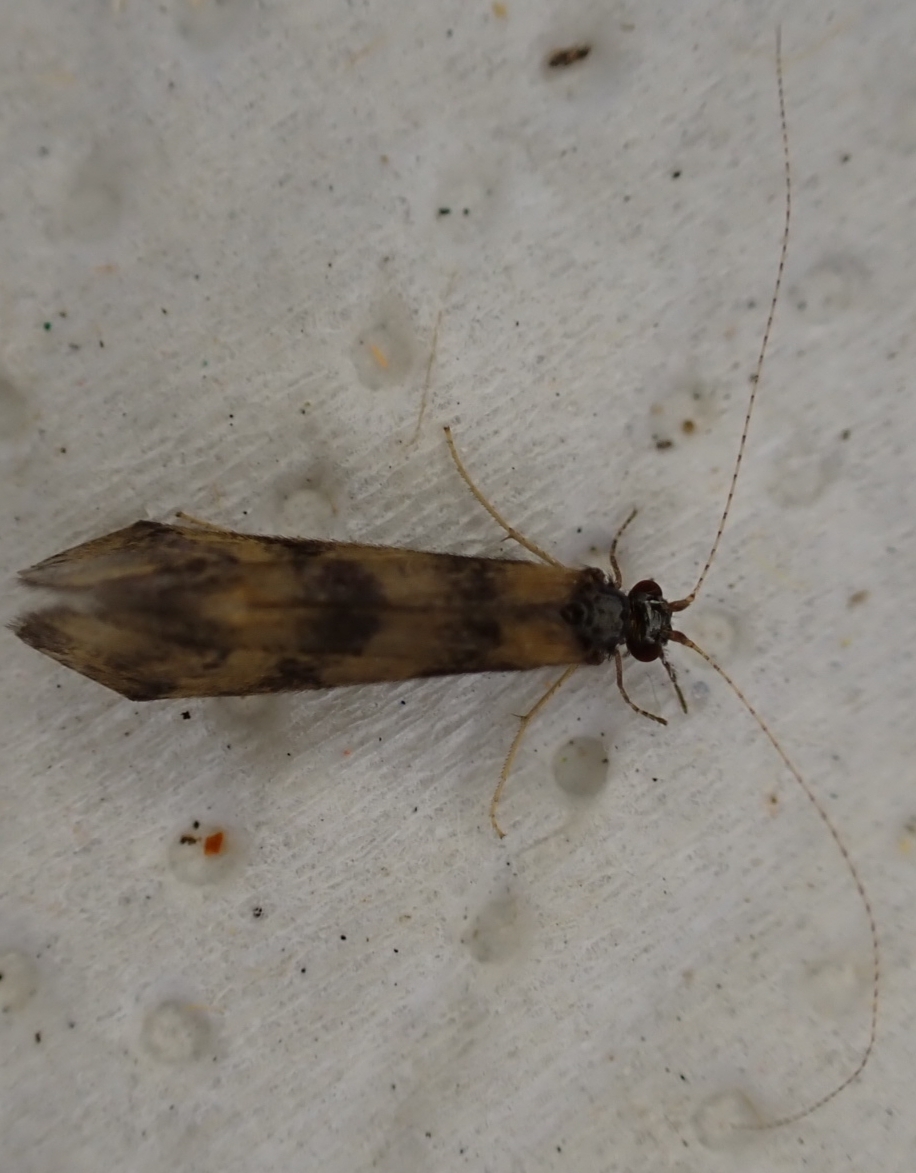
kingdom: Animalia
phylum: Arthropoda
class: Insecta
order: Trichoptera
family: Leptoceridae
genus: Mystacides
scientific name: Mystacides longicornis
